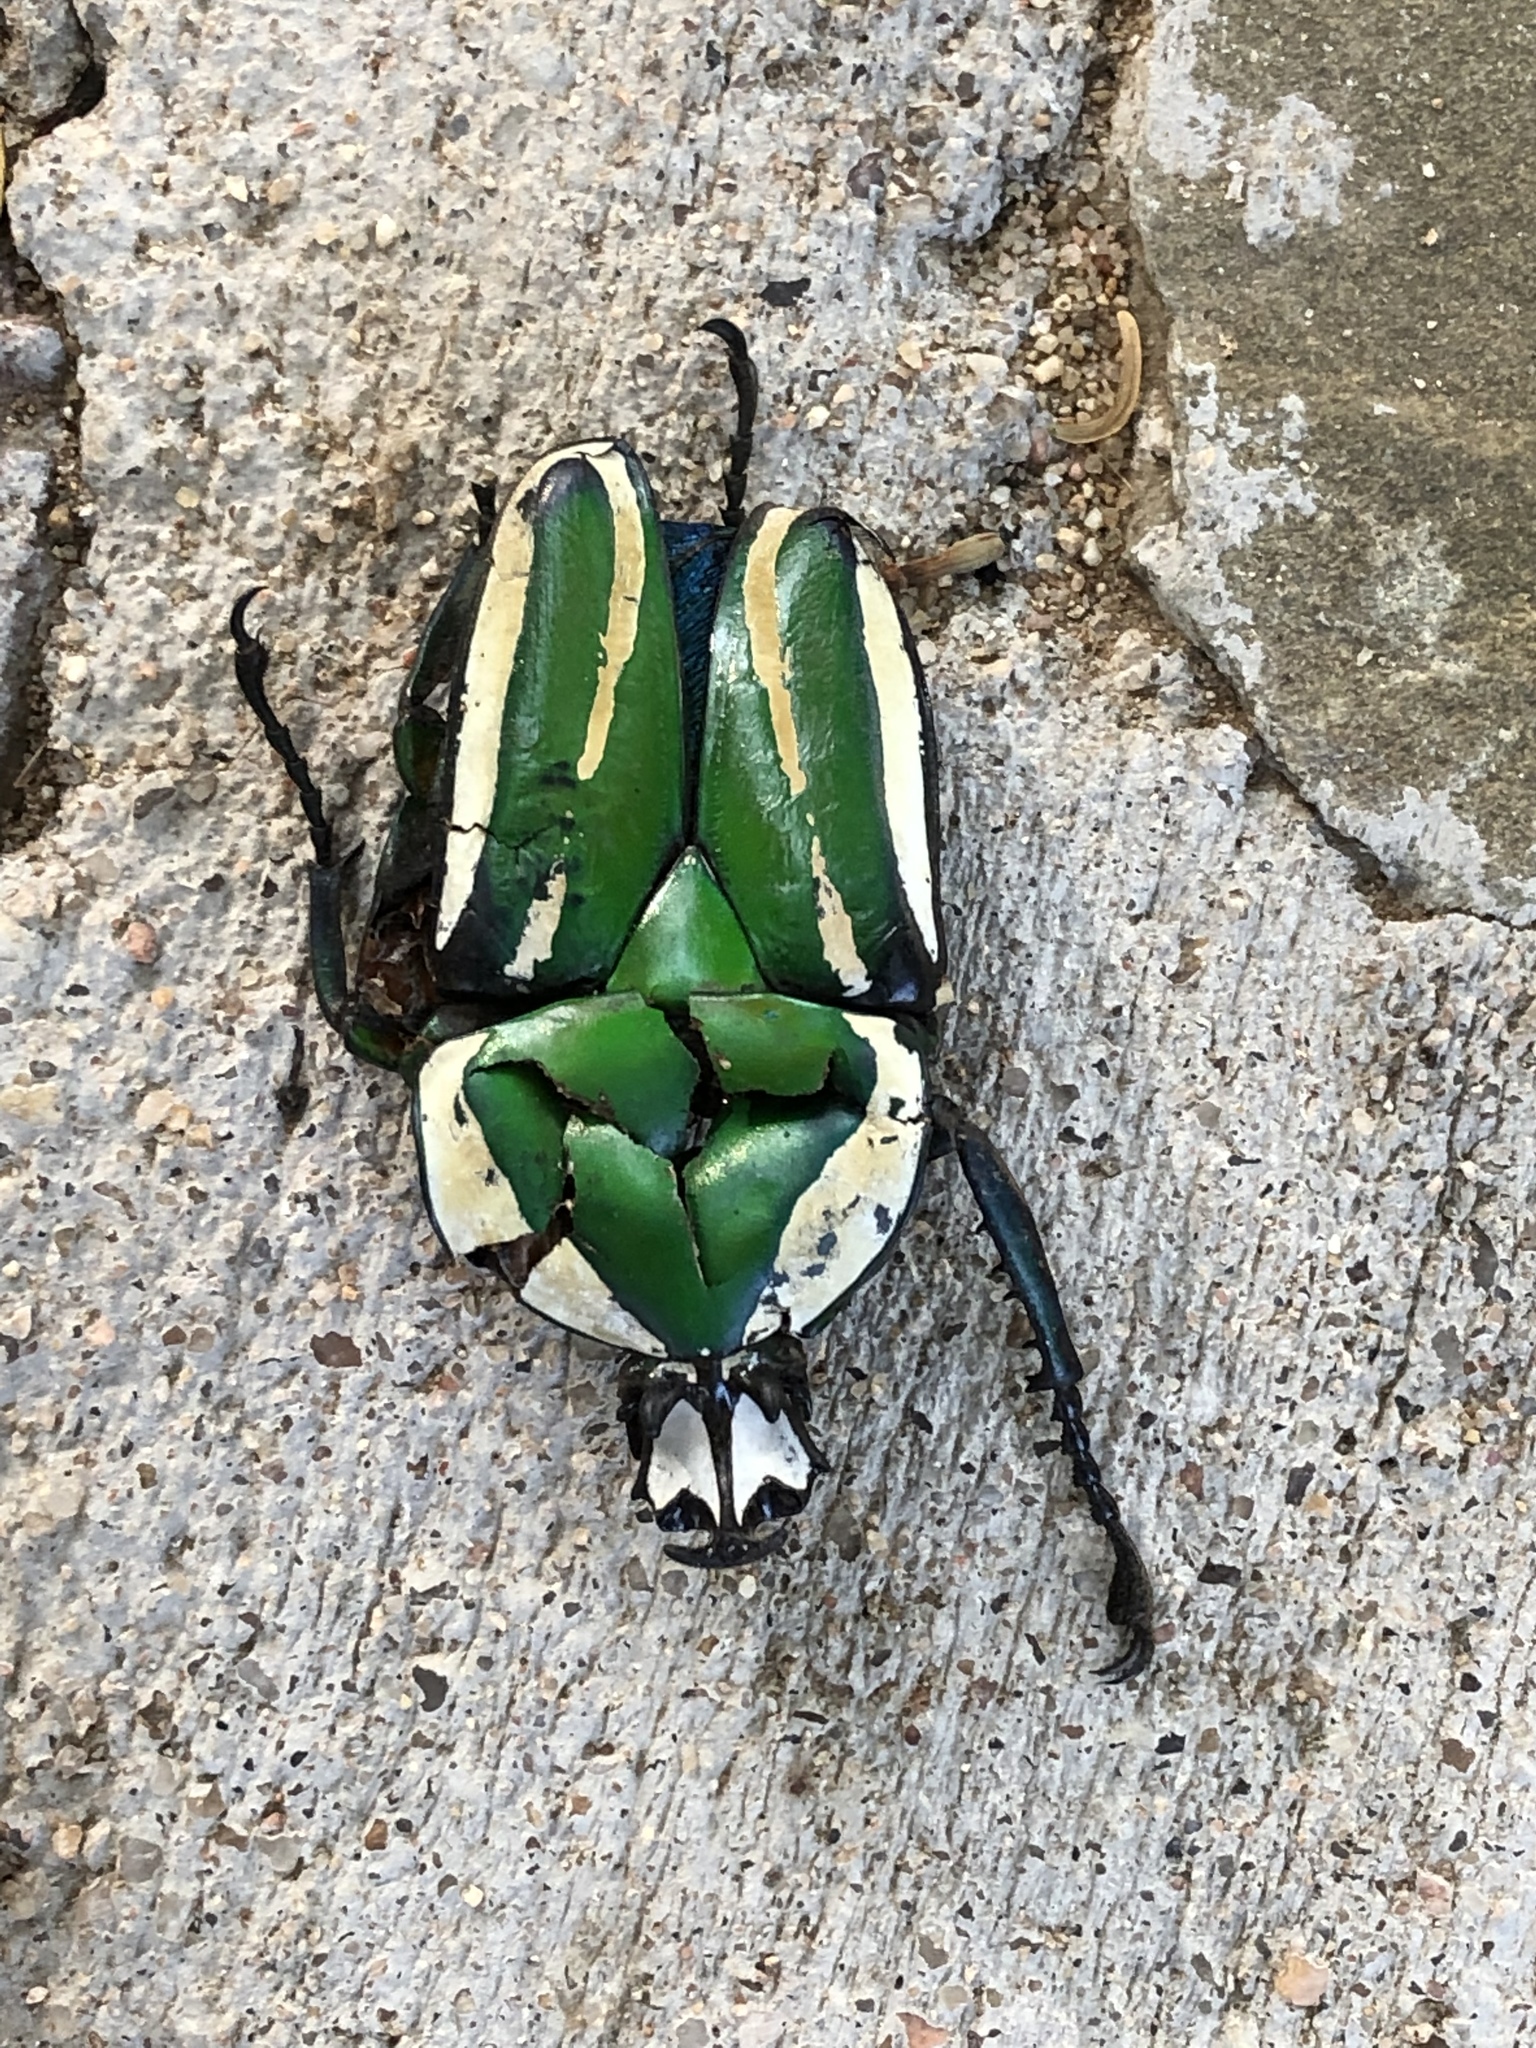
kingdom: Animalia
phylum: Arthropoda
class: Insecta
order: Coleoptera
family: Scarabaeidae
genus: Dicronorhina
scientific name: Dicronorhina derbyana
